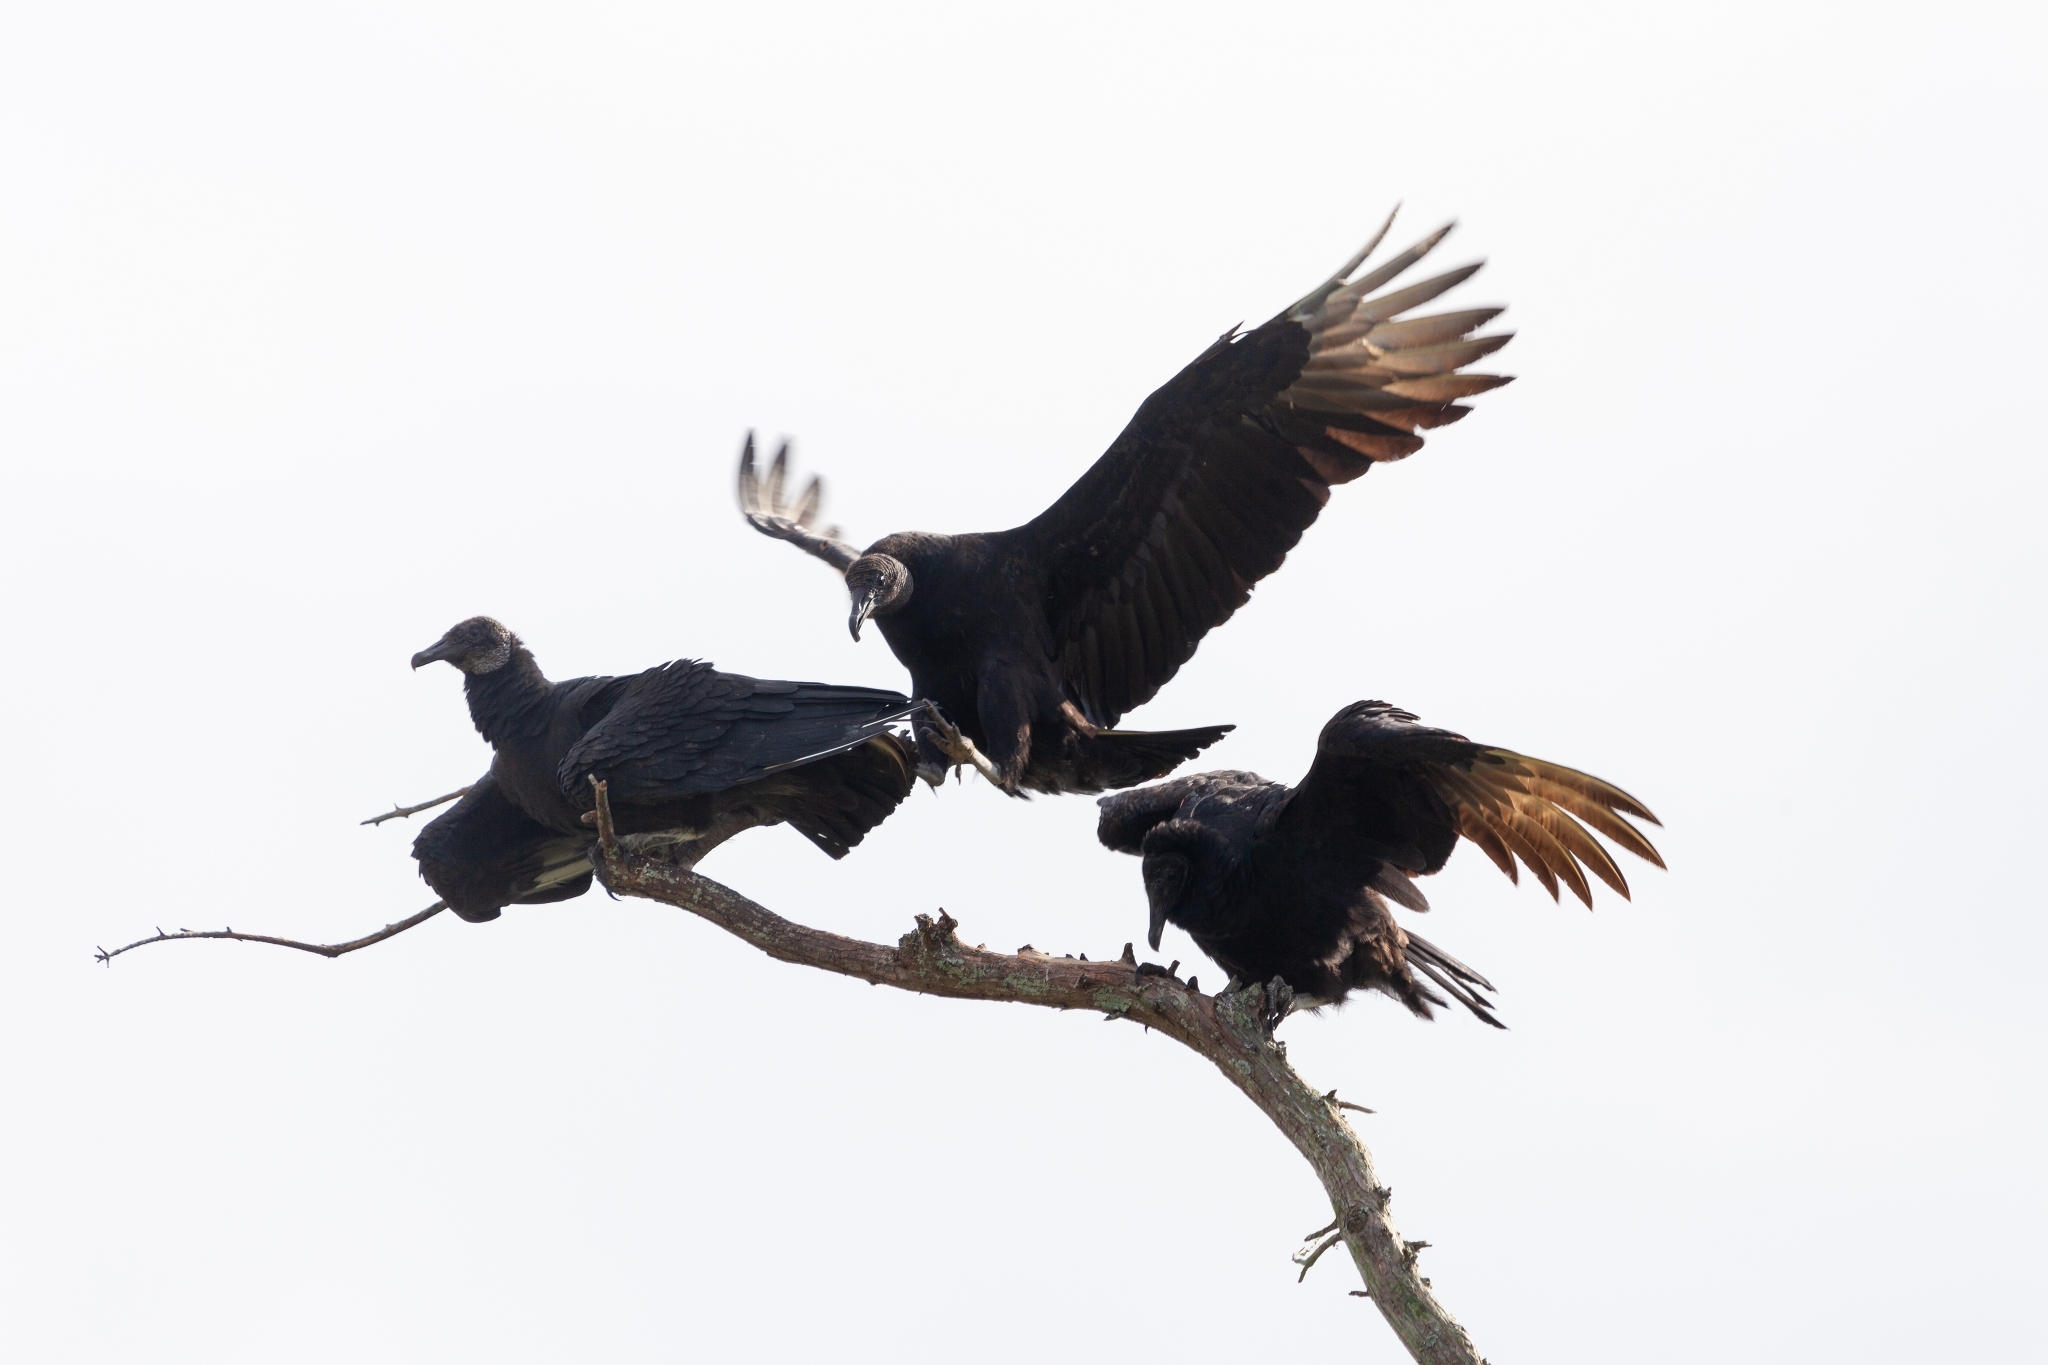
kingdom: Animalia
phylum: Chordata
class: Aves
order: Accipitriformes
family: Cathartidae
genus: Coragyps
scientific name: Coragyps atratus
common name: Black vulture
